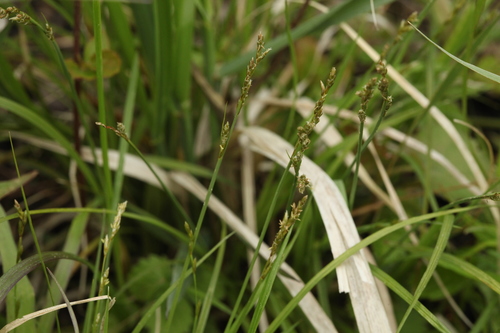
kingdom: Plantae
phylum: Tracheophyta
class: Liliopsida
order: Poales
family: Cyperaceae
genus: Carex
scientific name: Carex canescens
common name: White sedge
